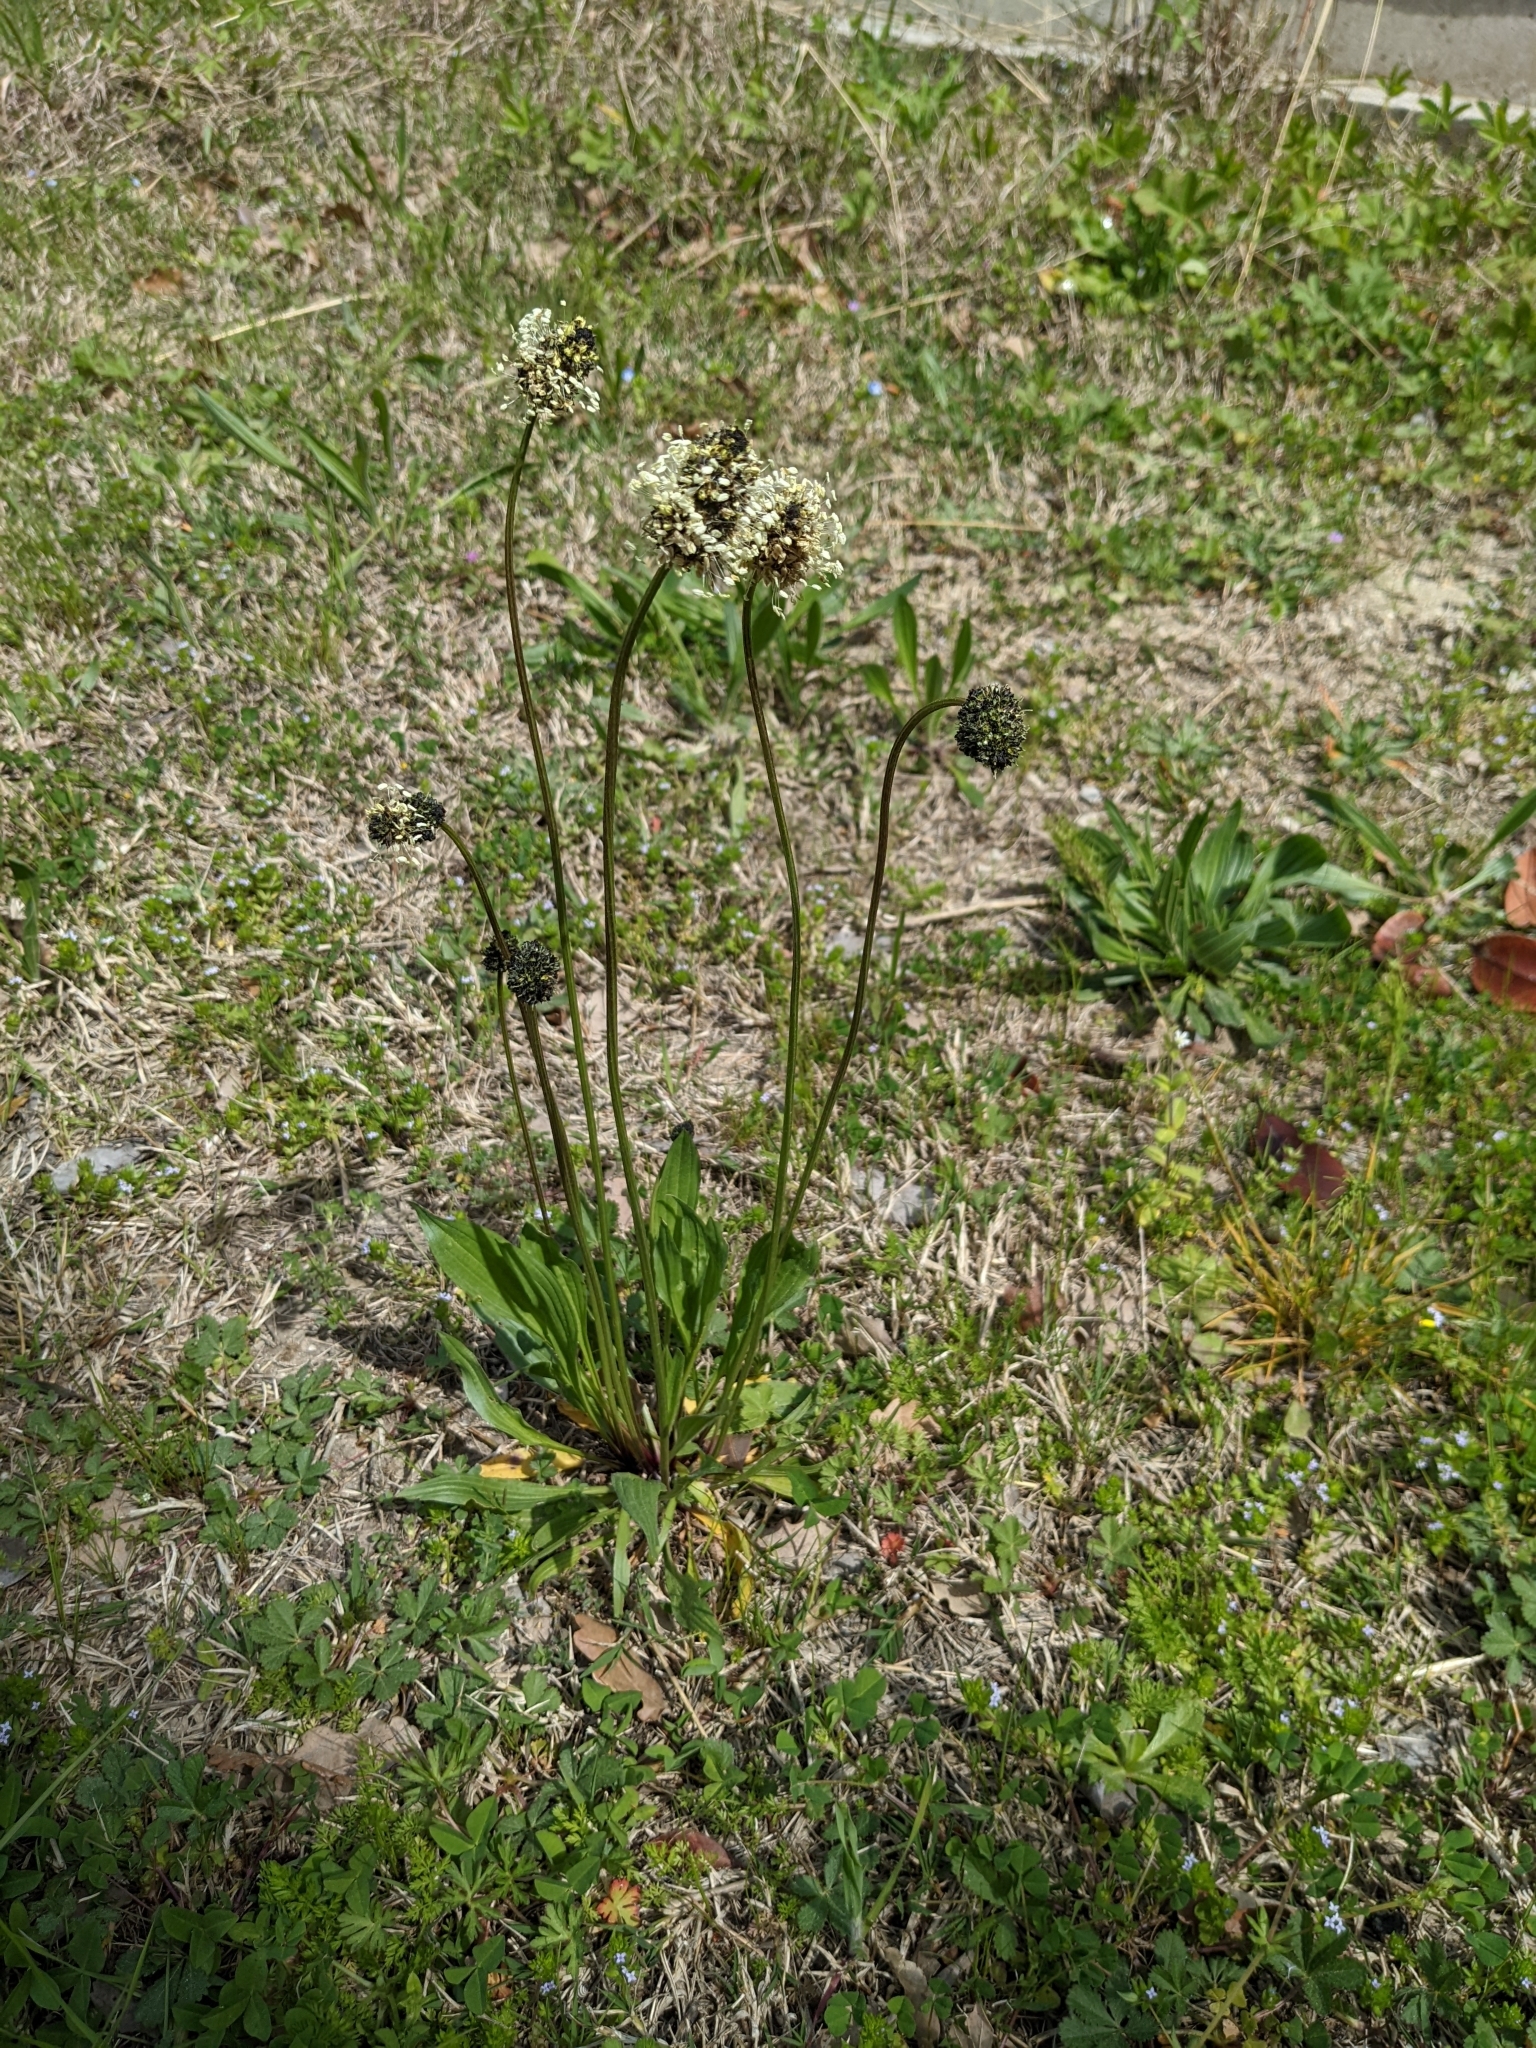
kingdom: Plantae
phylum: Tracheophyta
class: Magnoliopsida
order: Lamiales
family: Plantaginaceae
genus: Plantago
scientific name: Plantago lanceolata
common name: Ribwort plantain
